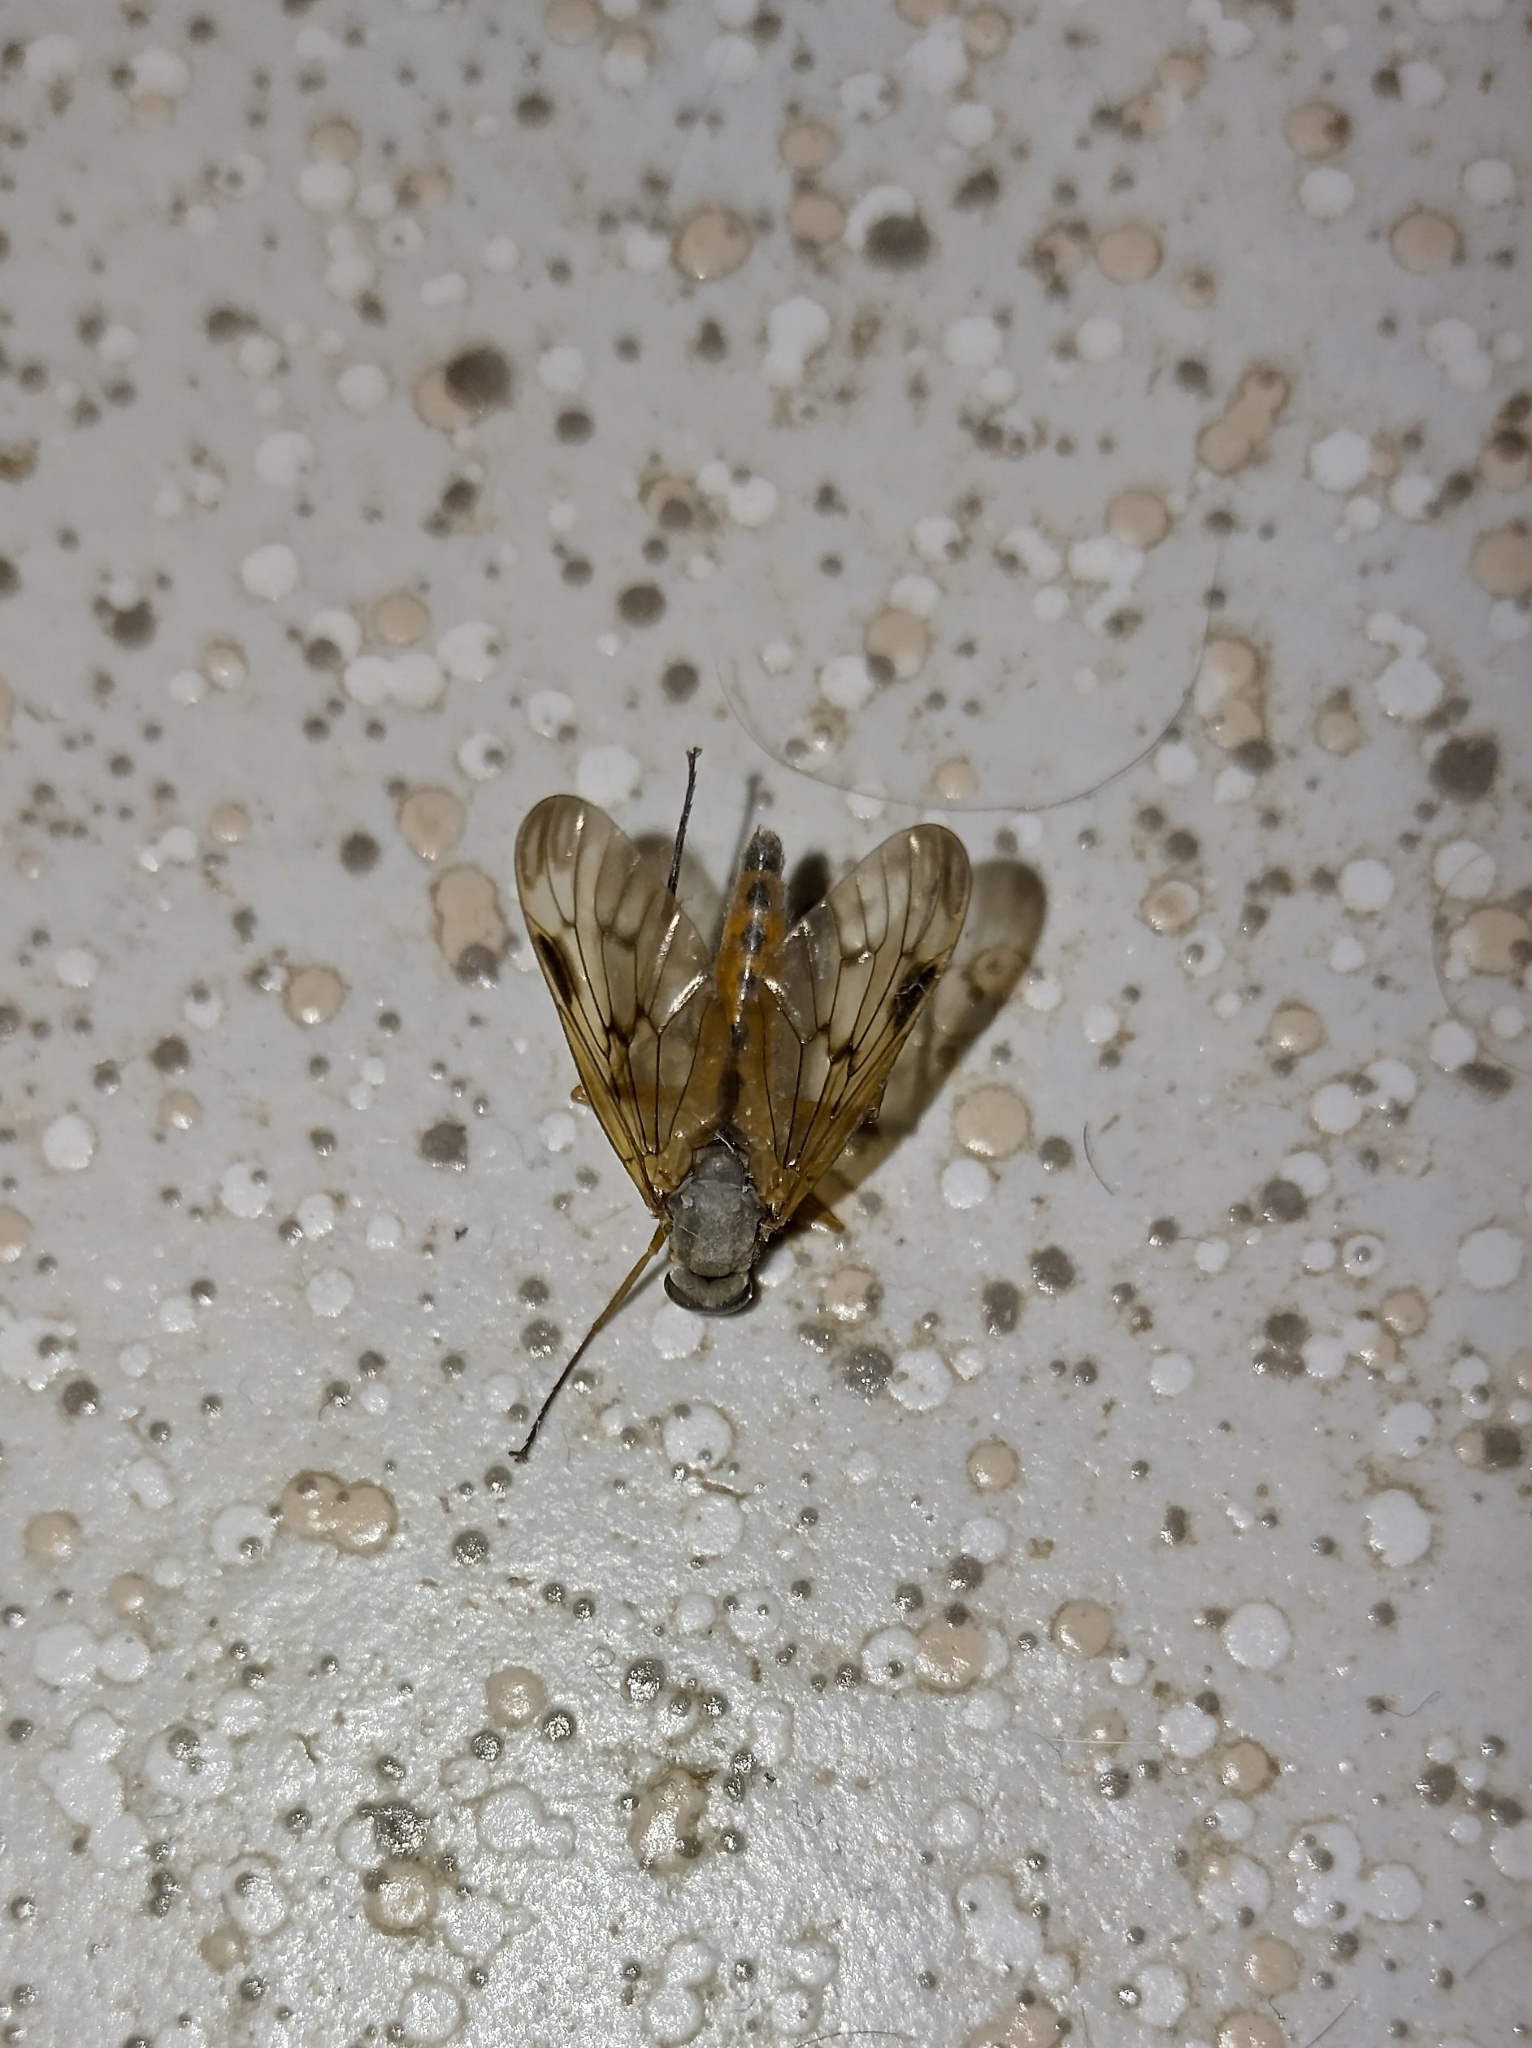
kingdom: Animalia
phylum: Arthropoda
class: Insecta
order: Diptera
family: Rhagionidae
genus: Rhagio
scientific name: Rhagio scolopacea
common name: Downlooker snipefly
